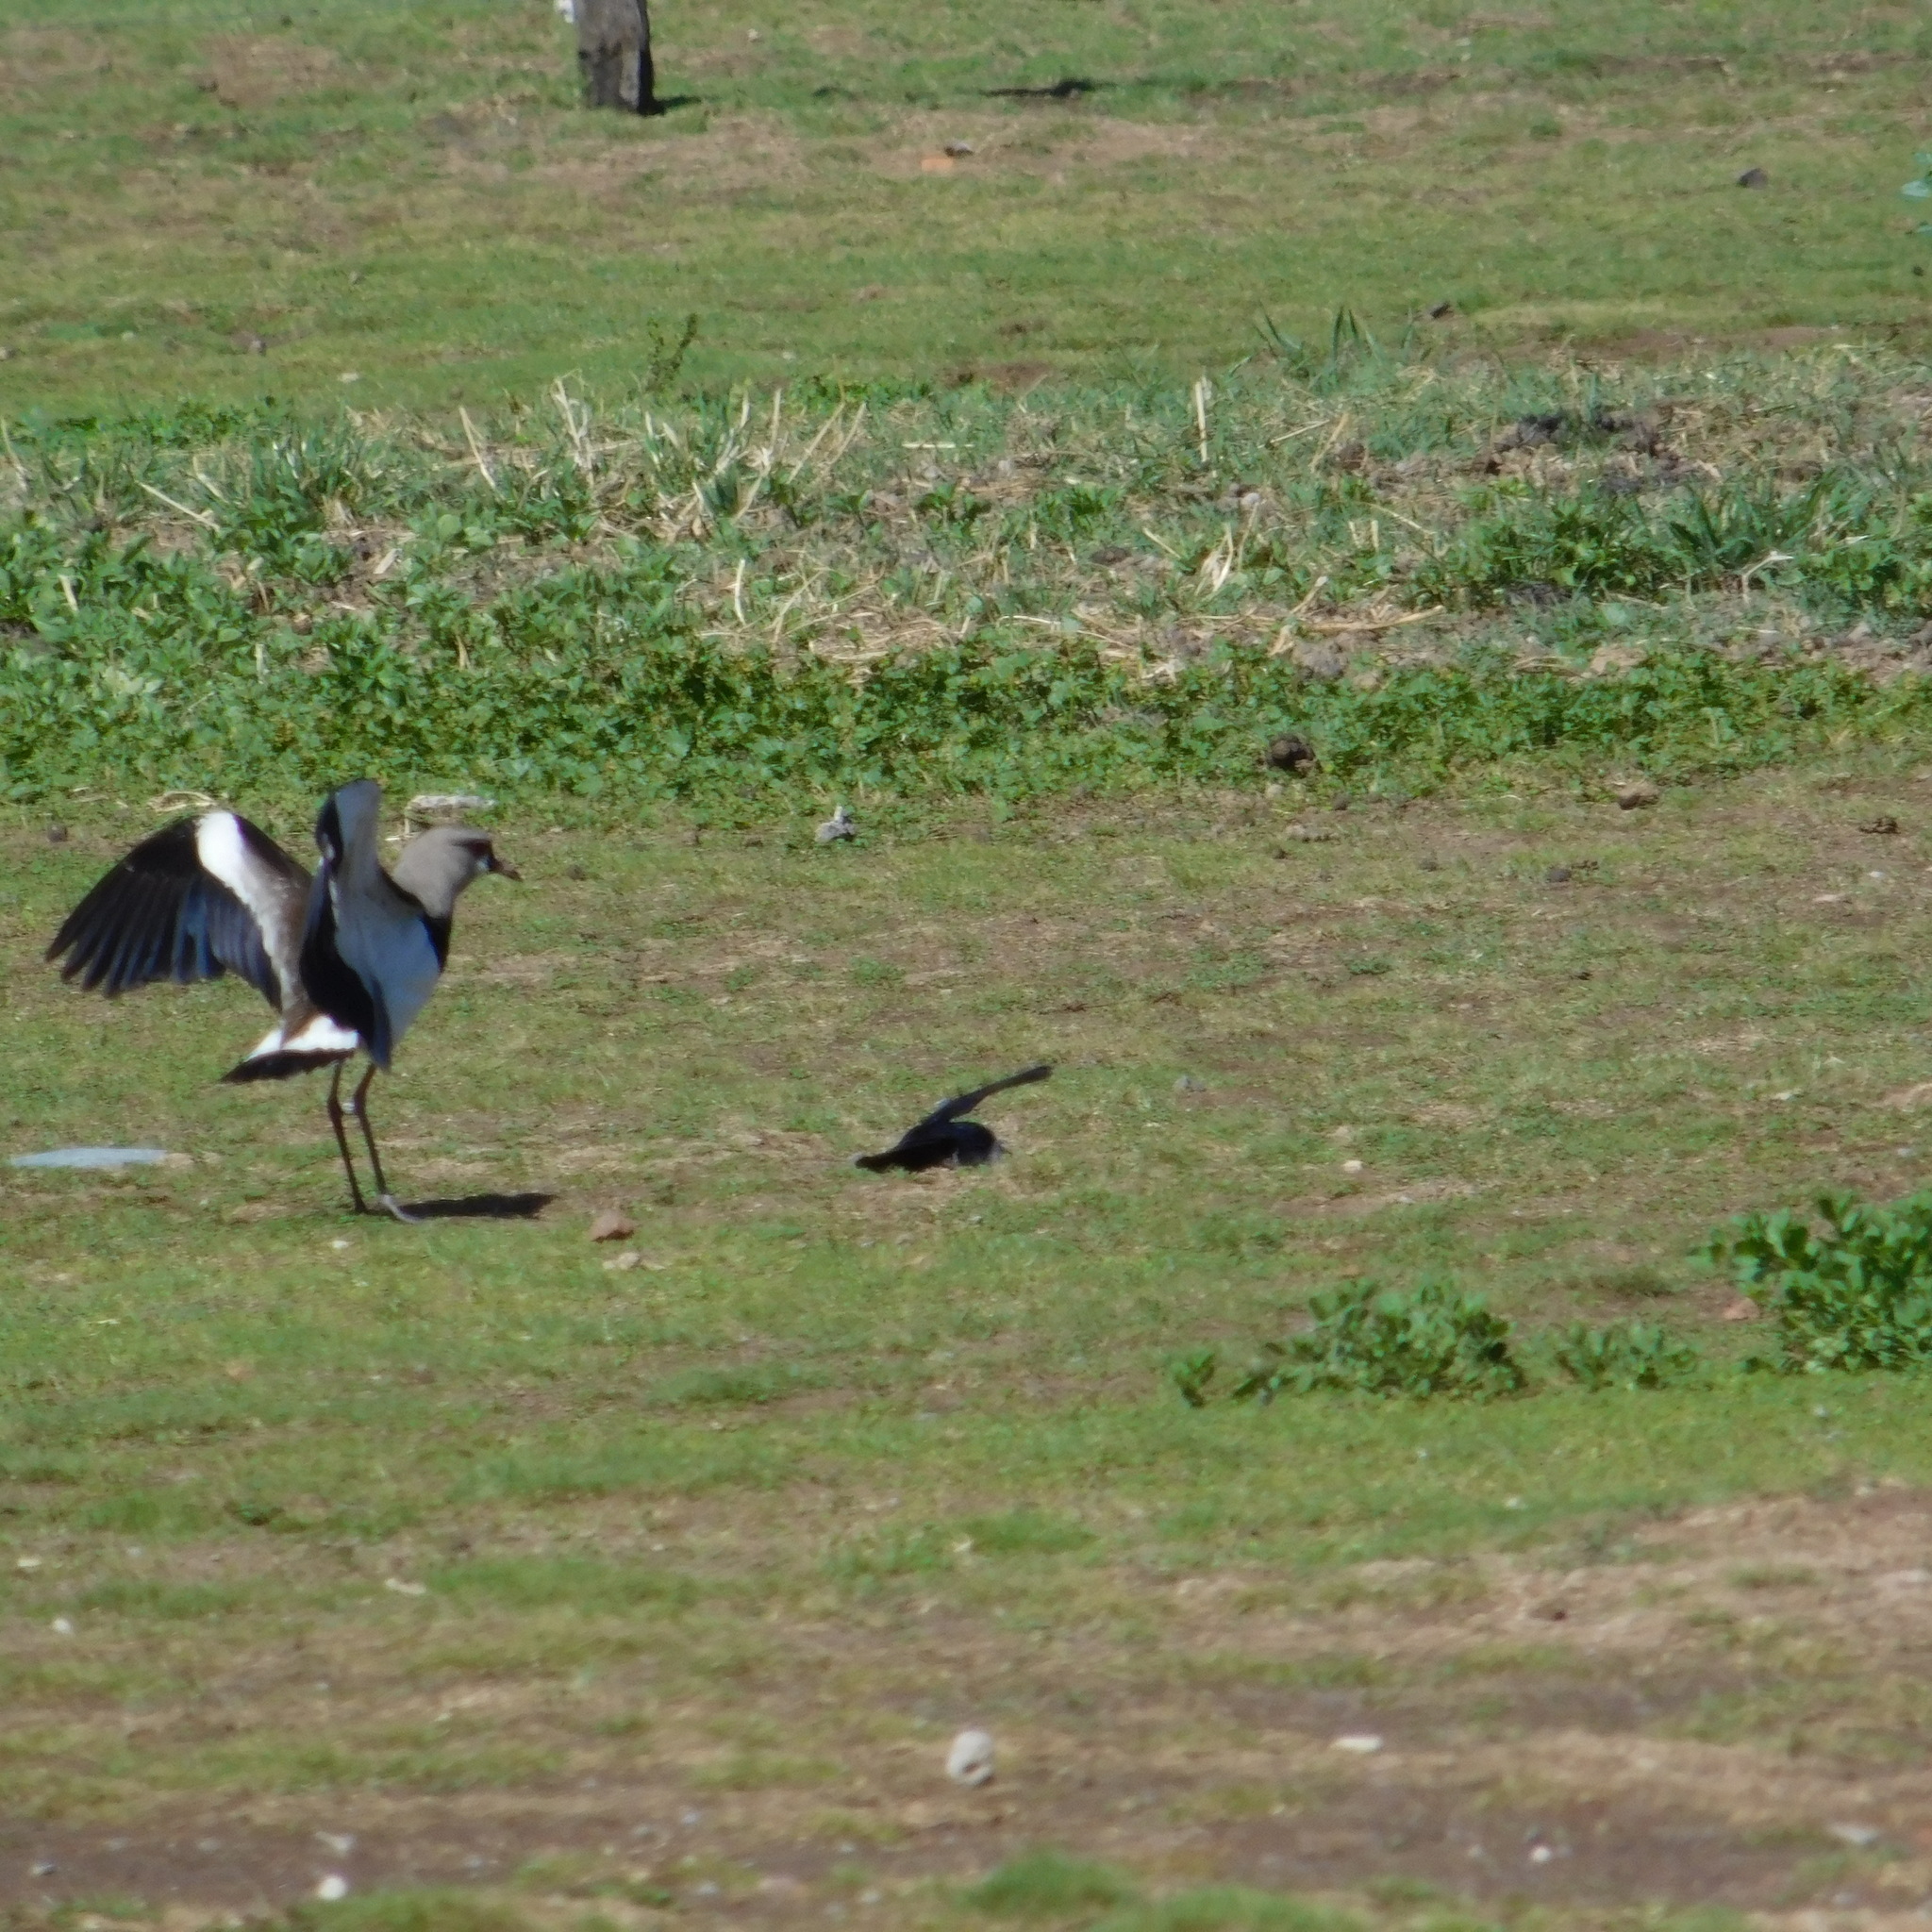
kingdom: Animalia
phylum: Chordata
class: Aves
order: Charadriiformes
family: Charadriidae
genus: Vanellus
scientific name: Vanellus chilensis
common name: Southern lapwing
